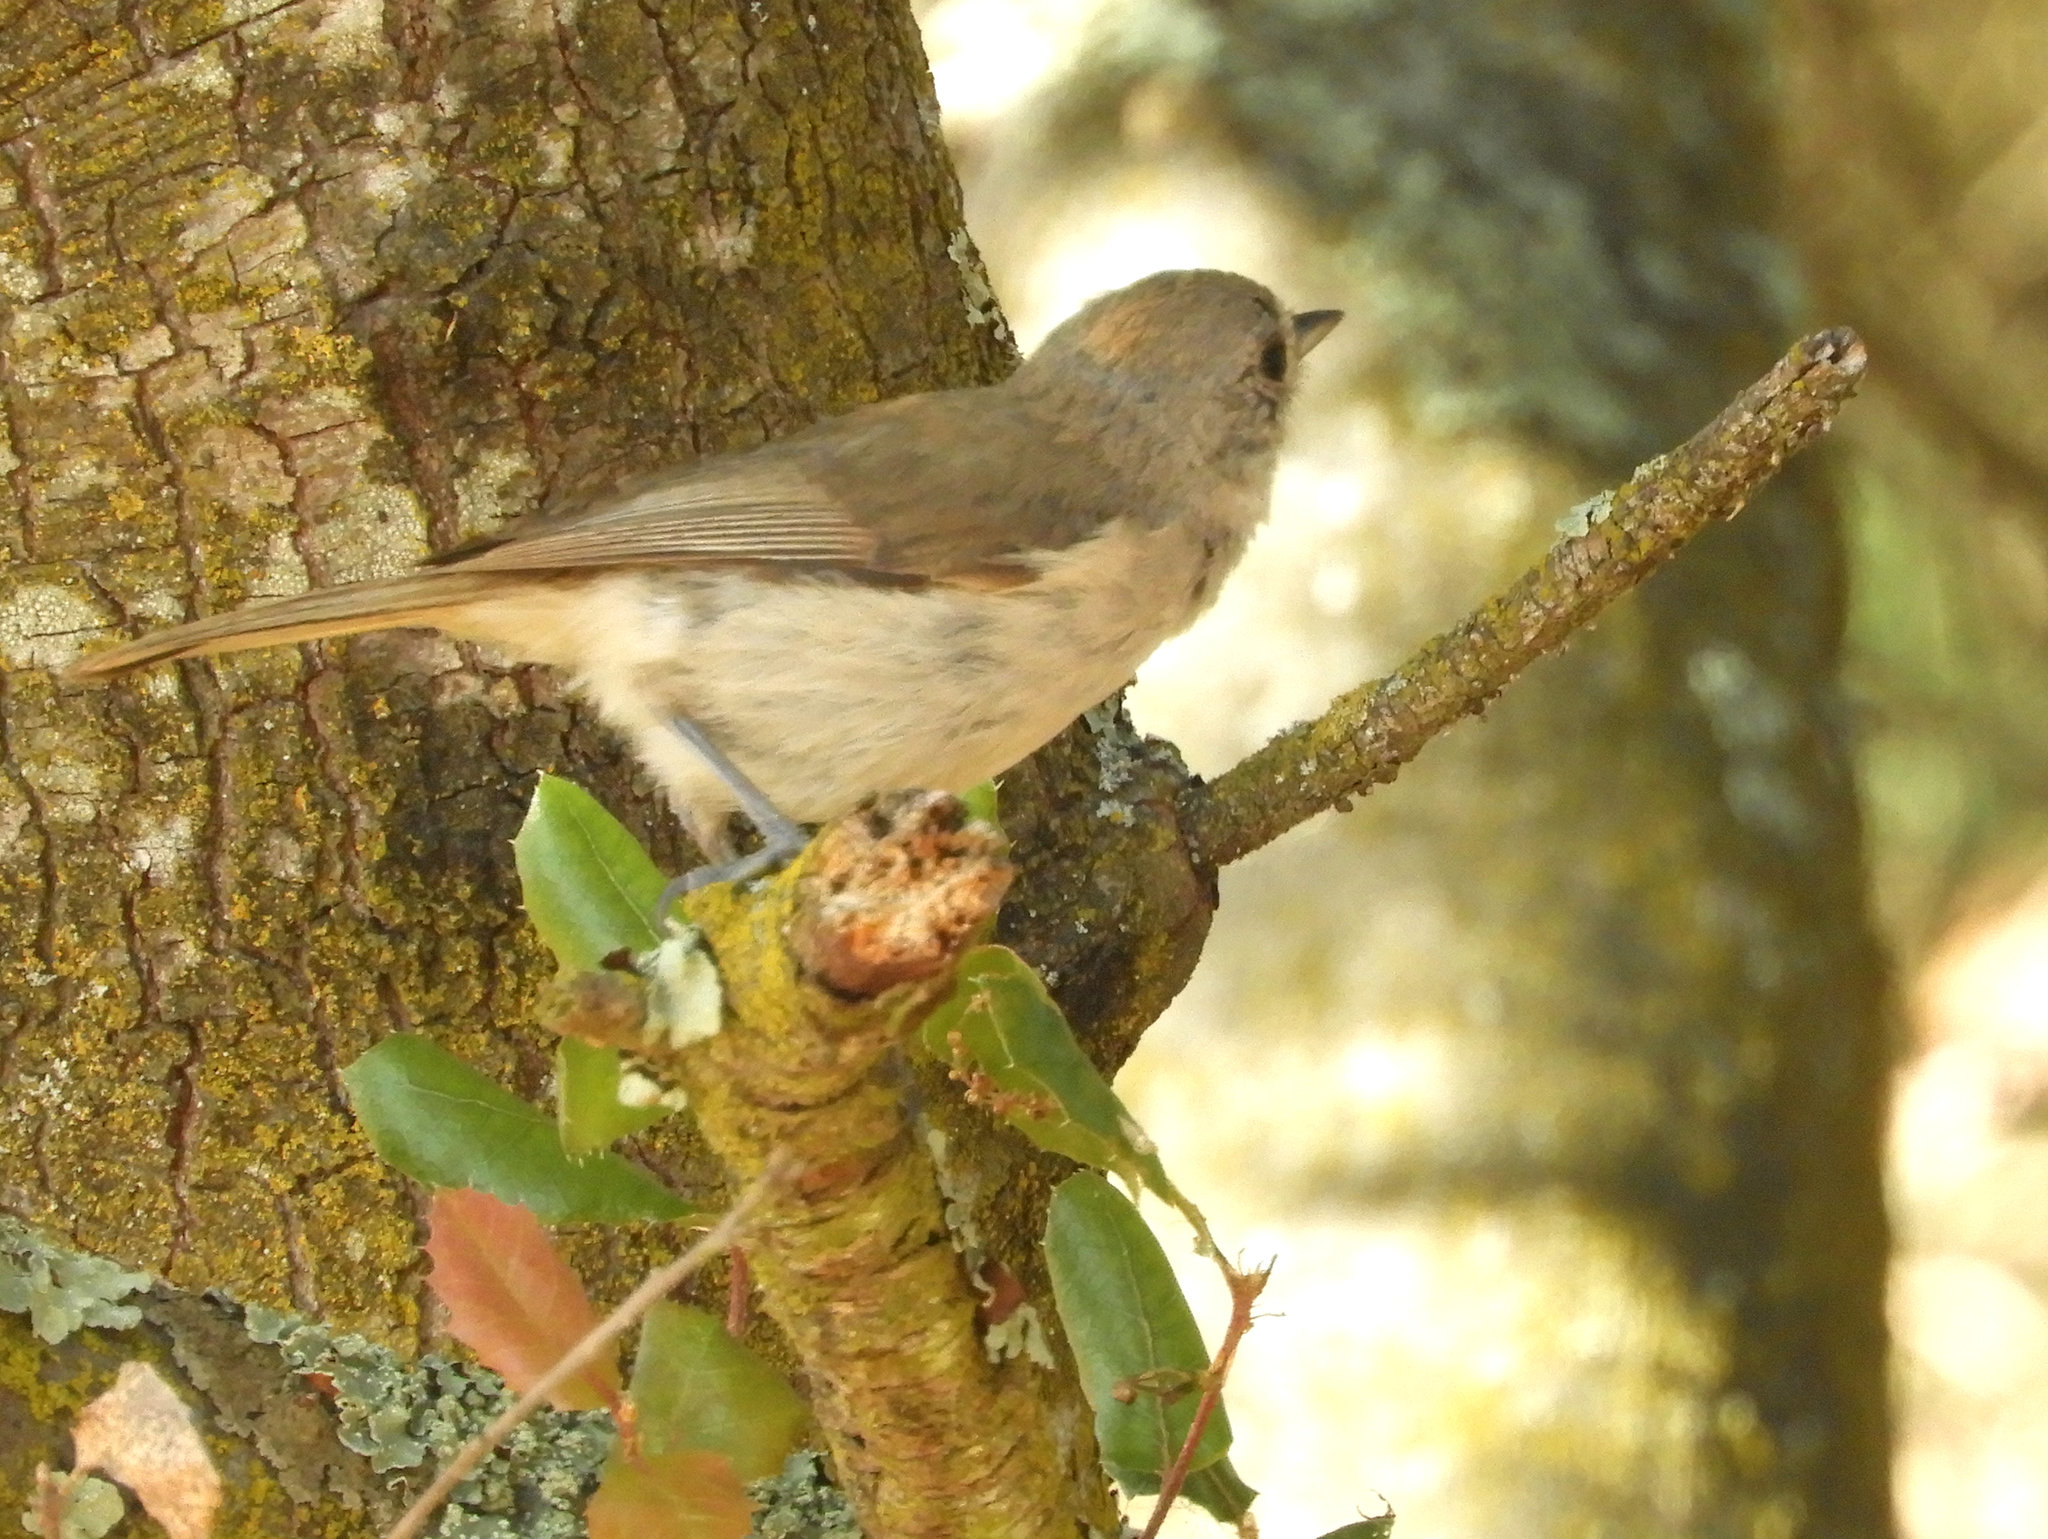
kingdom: Animalia
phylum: Chordata
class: Aves
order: Passeriformes
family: Paridae
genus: Baeolophus
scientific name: Baeolophus inornatus
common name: Oak titmouse
